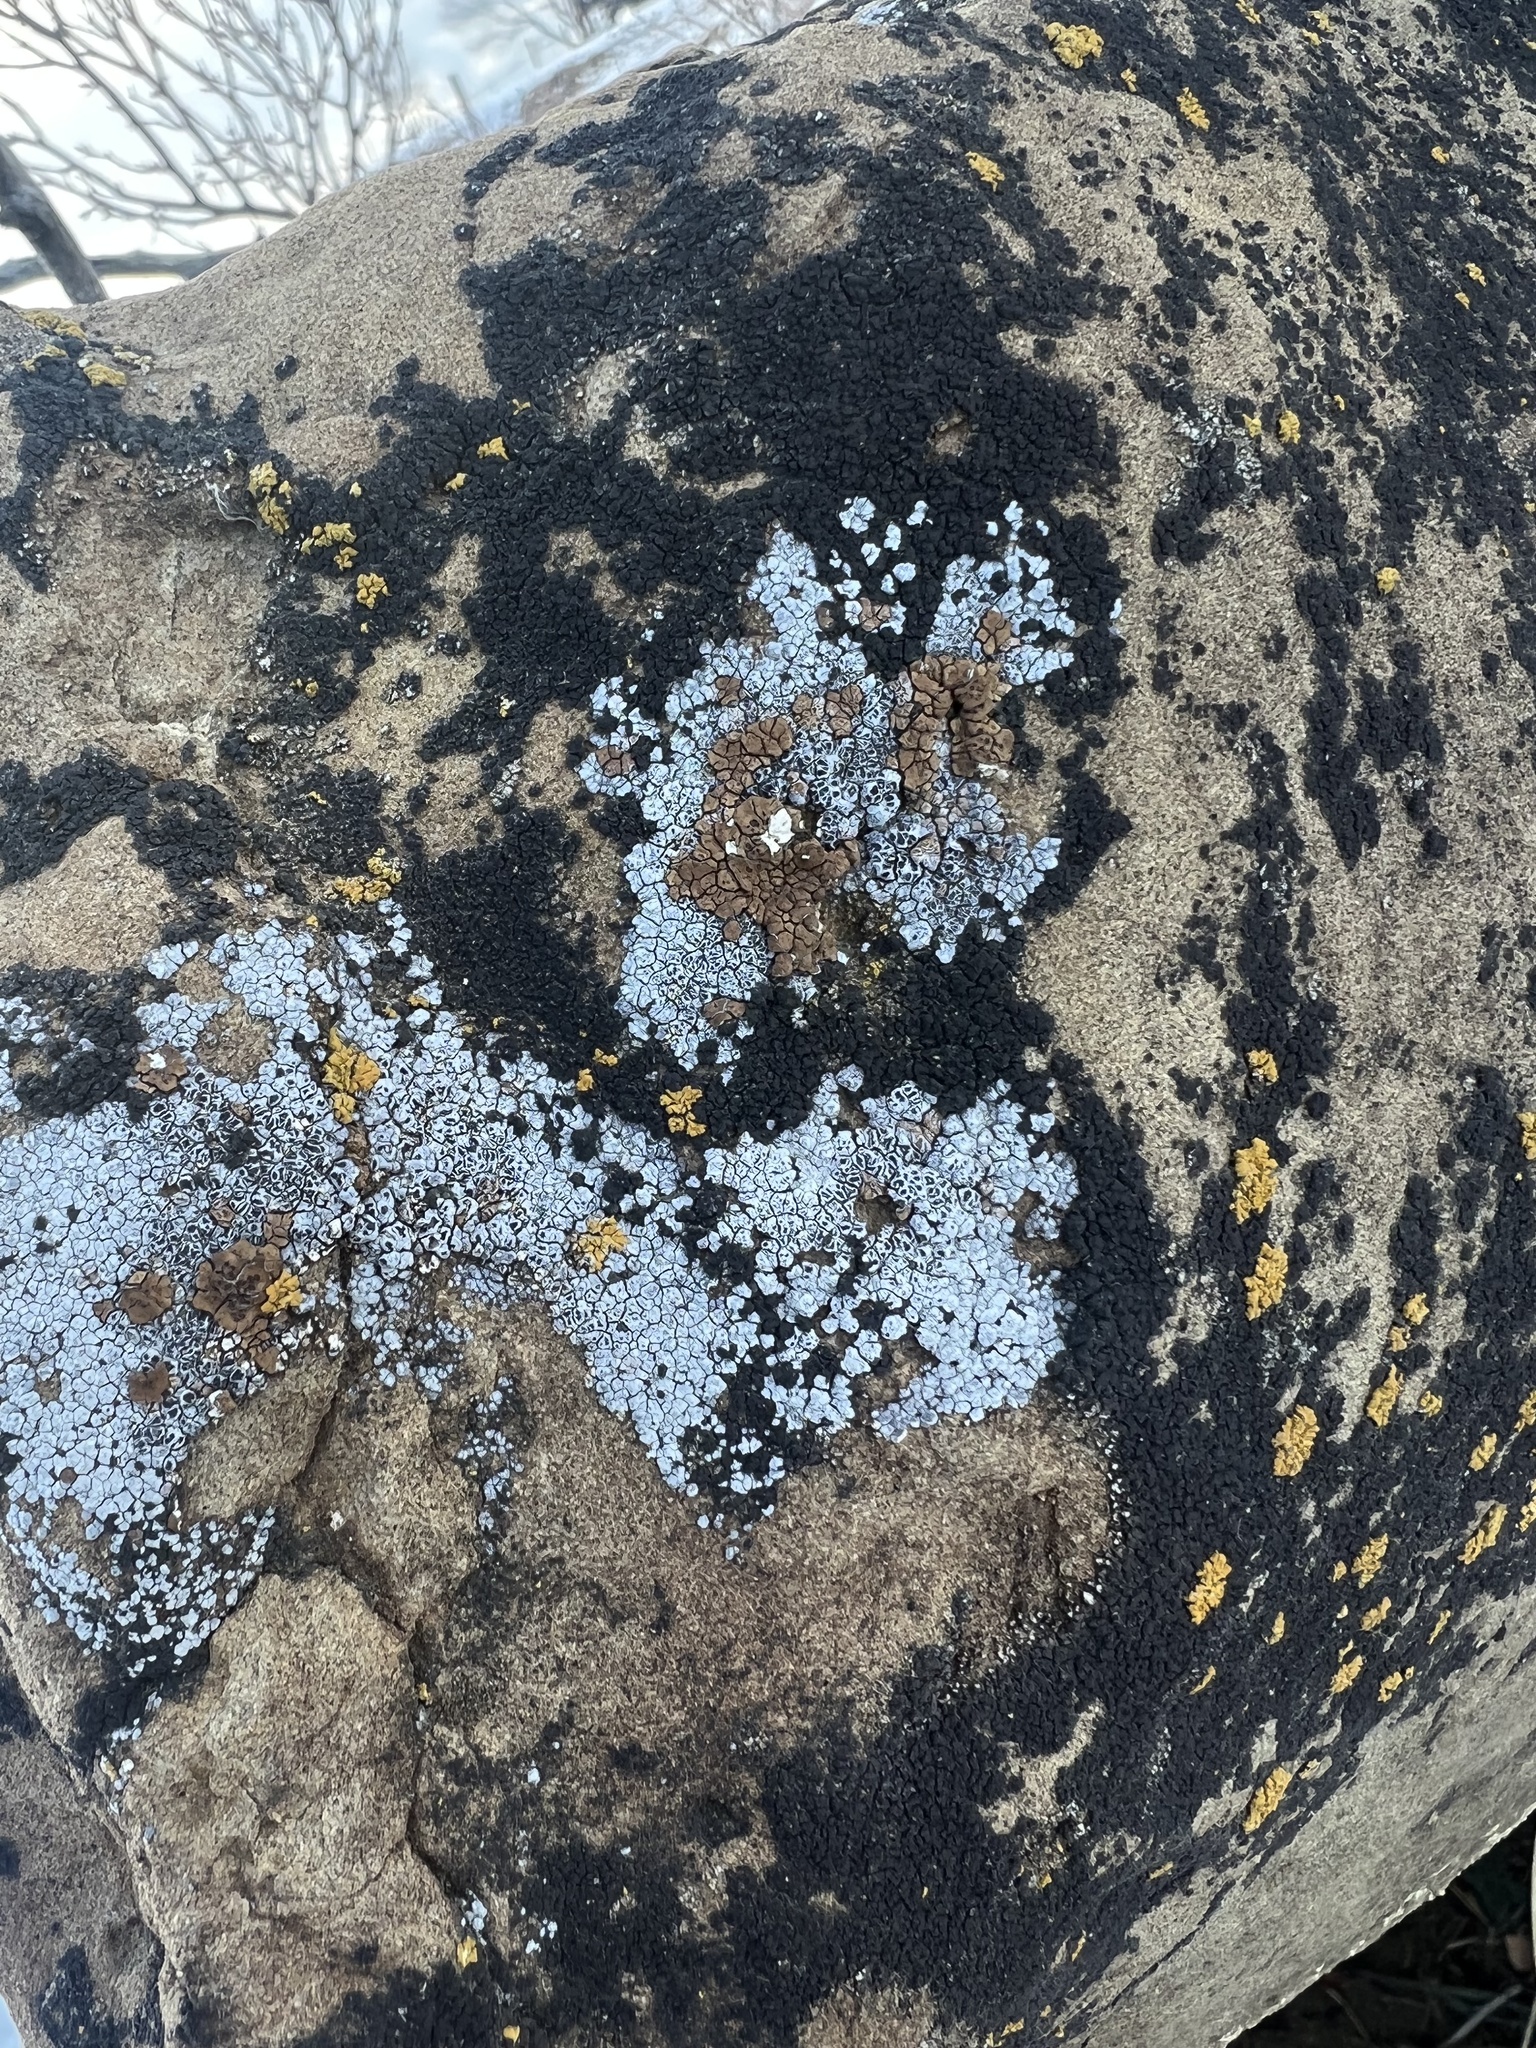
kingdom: Fungi
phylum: Ascomycota
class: Eurotiomycetes
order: Verrucariales
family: Verrucariaceae
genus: Endocarpon
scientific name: Endocarpon pallidulum
